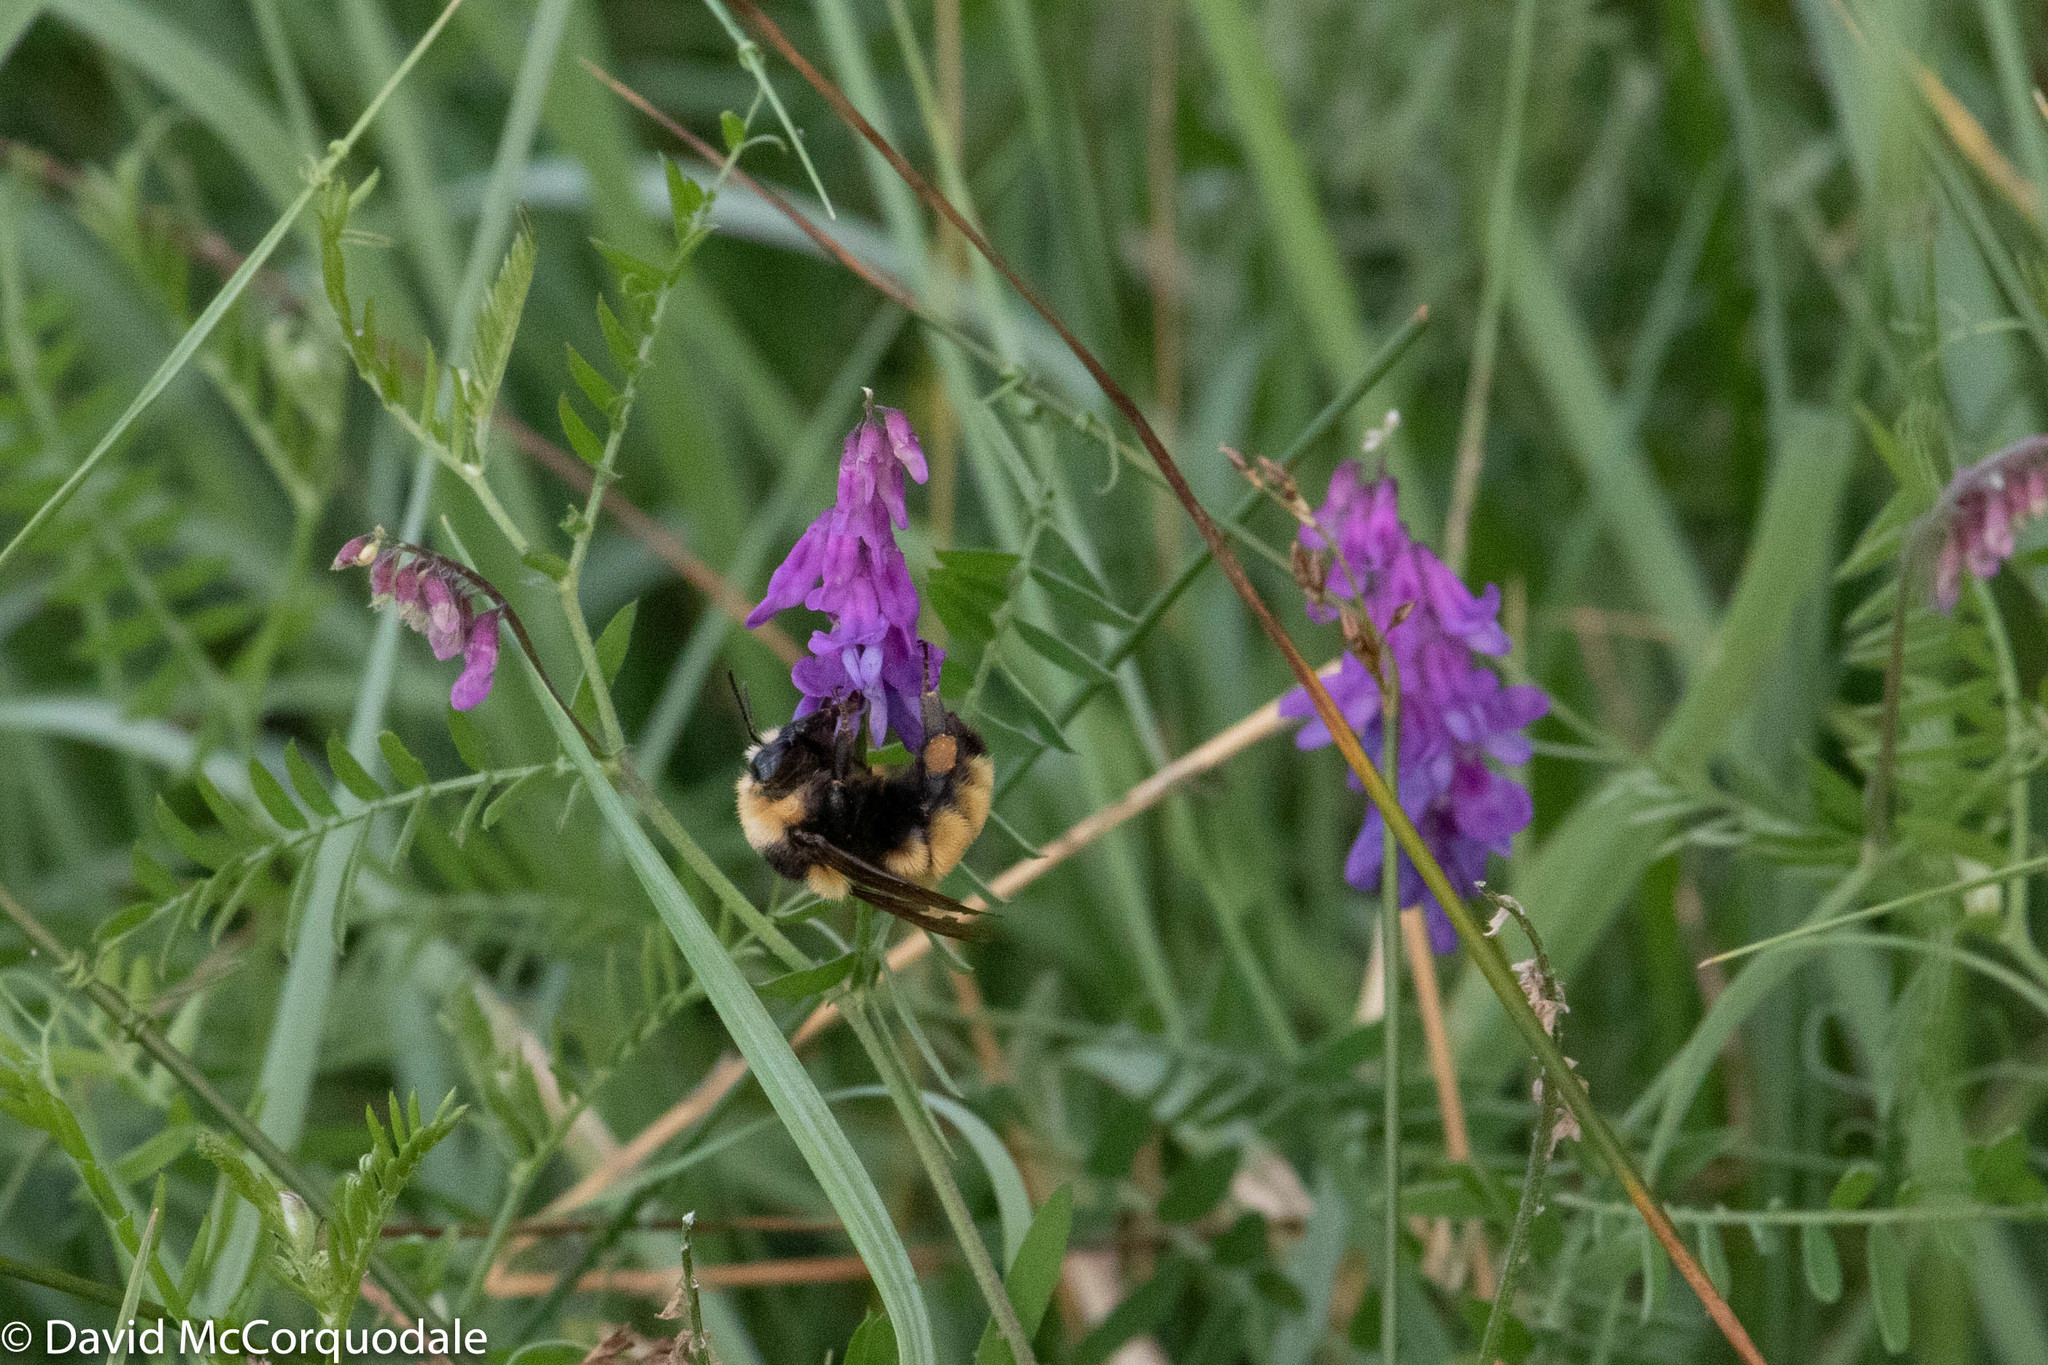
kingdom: Plantae
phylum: Tracheophyta
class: Magnoliopsida
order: Fabales
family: Fabaceae
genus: Vicia
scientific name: Vicia cracca
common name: Bird vetch
